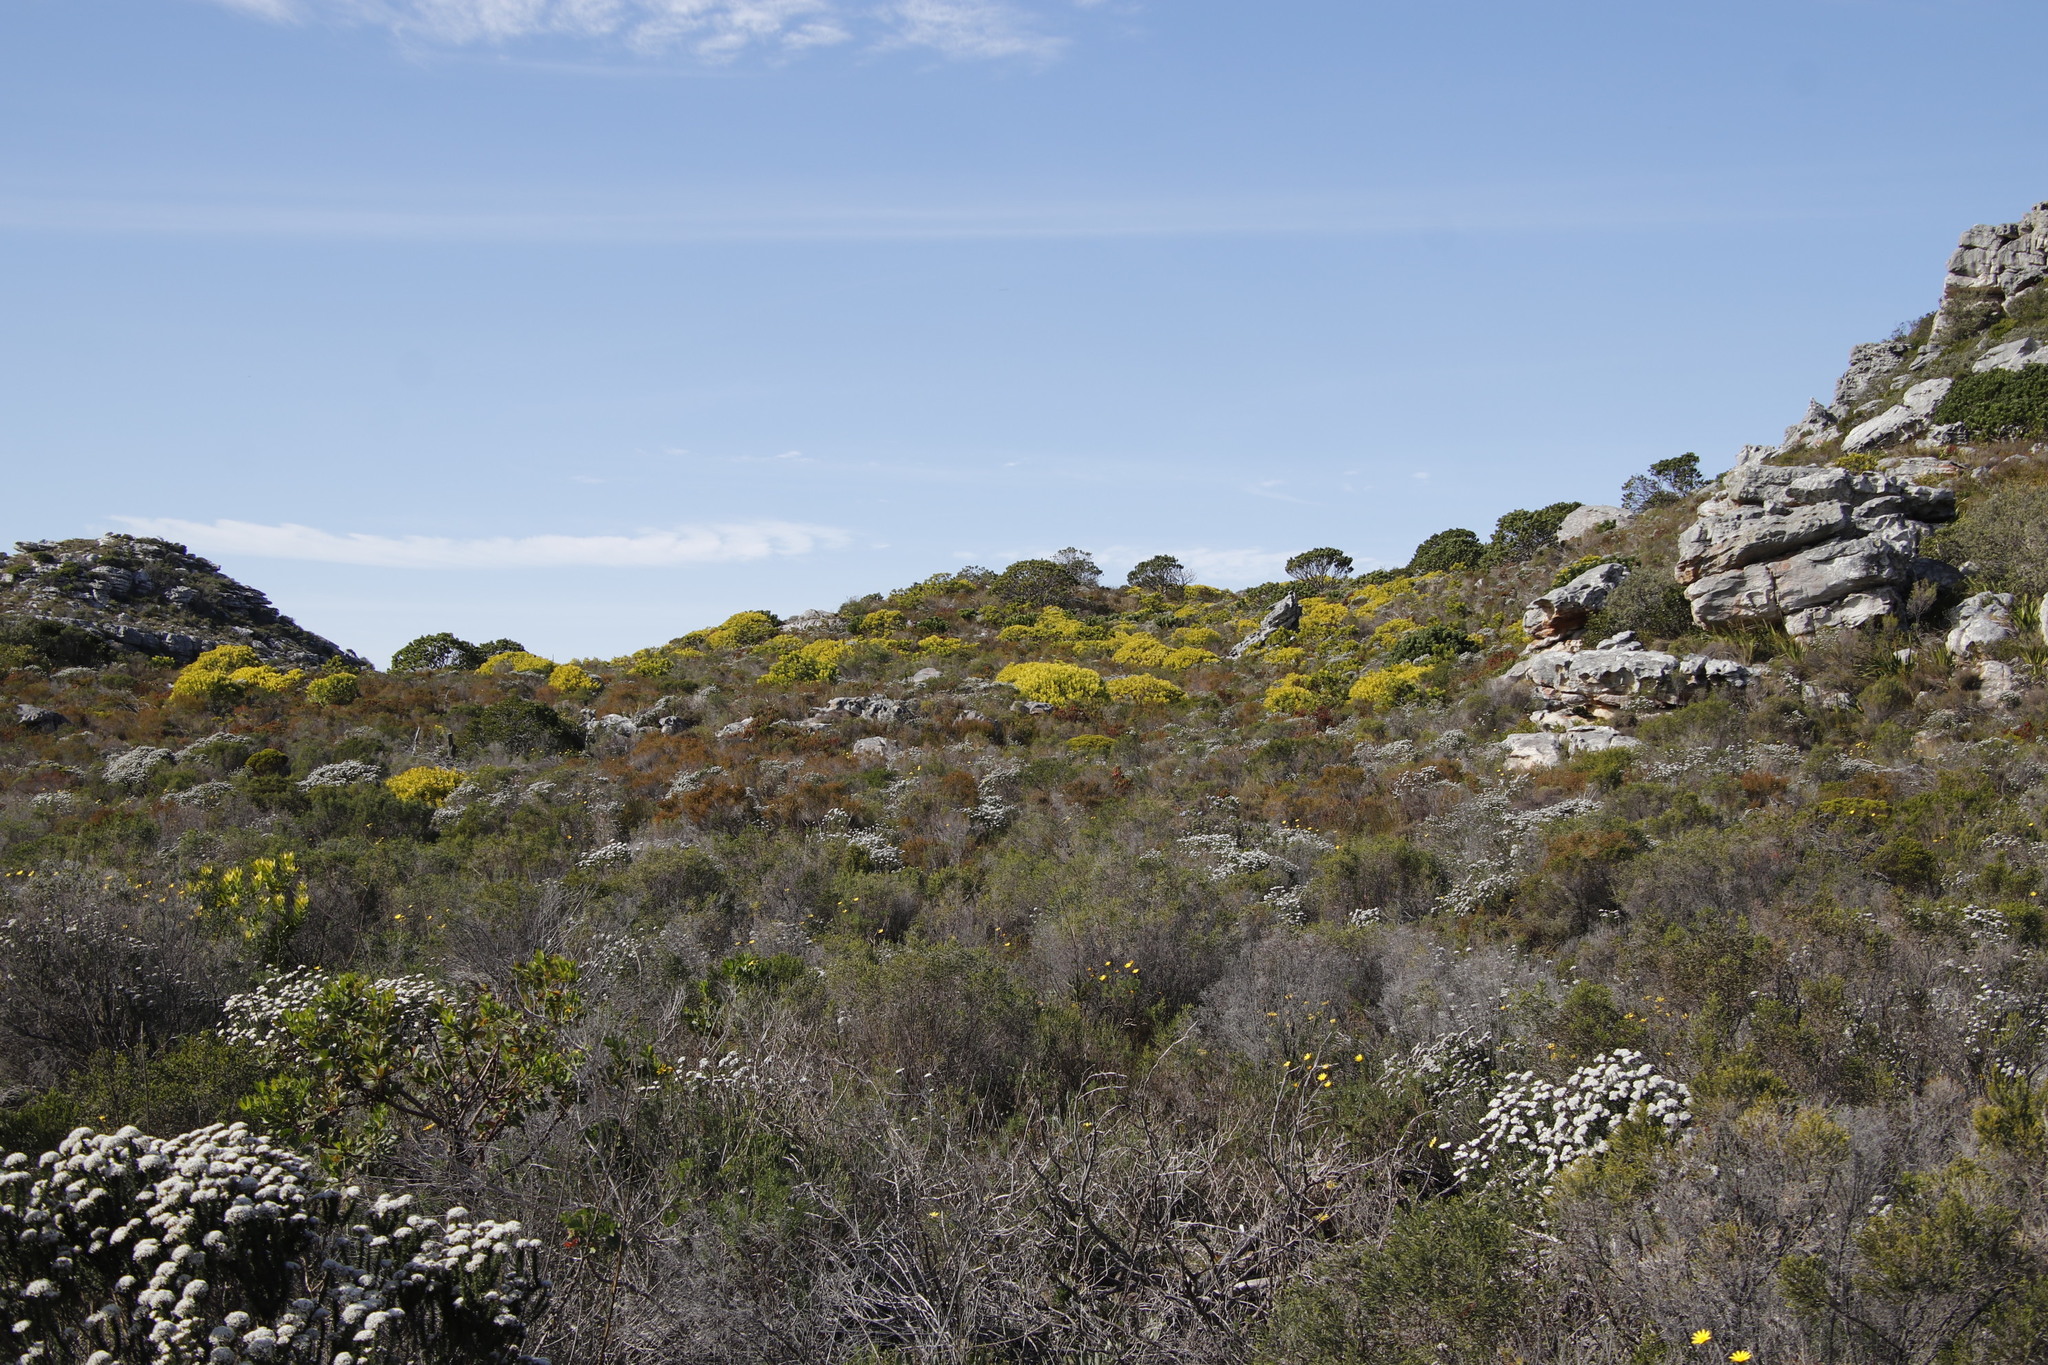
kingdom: Plantae
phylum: Tracheophyta
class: Magnoliopsida
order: Proteales
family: Proteaceae
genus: Leucadendron
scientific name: Leucadendron laureolum
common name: Golden sunshinebush
